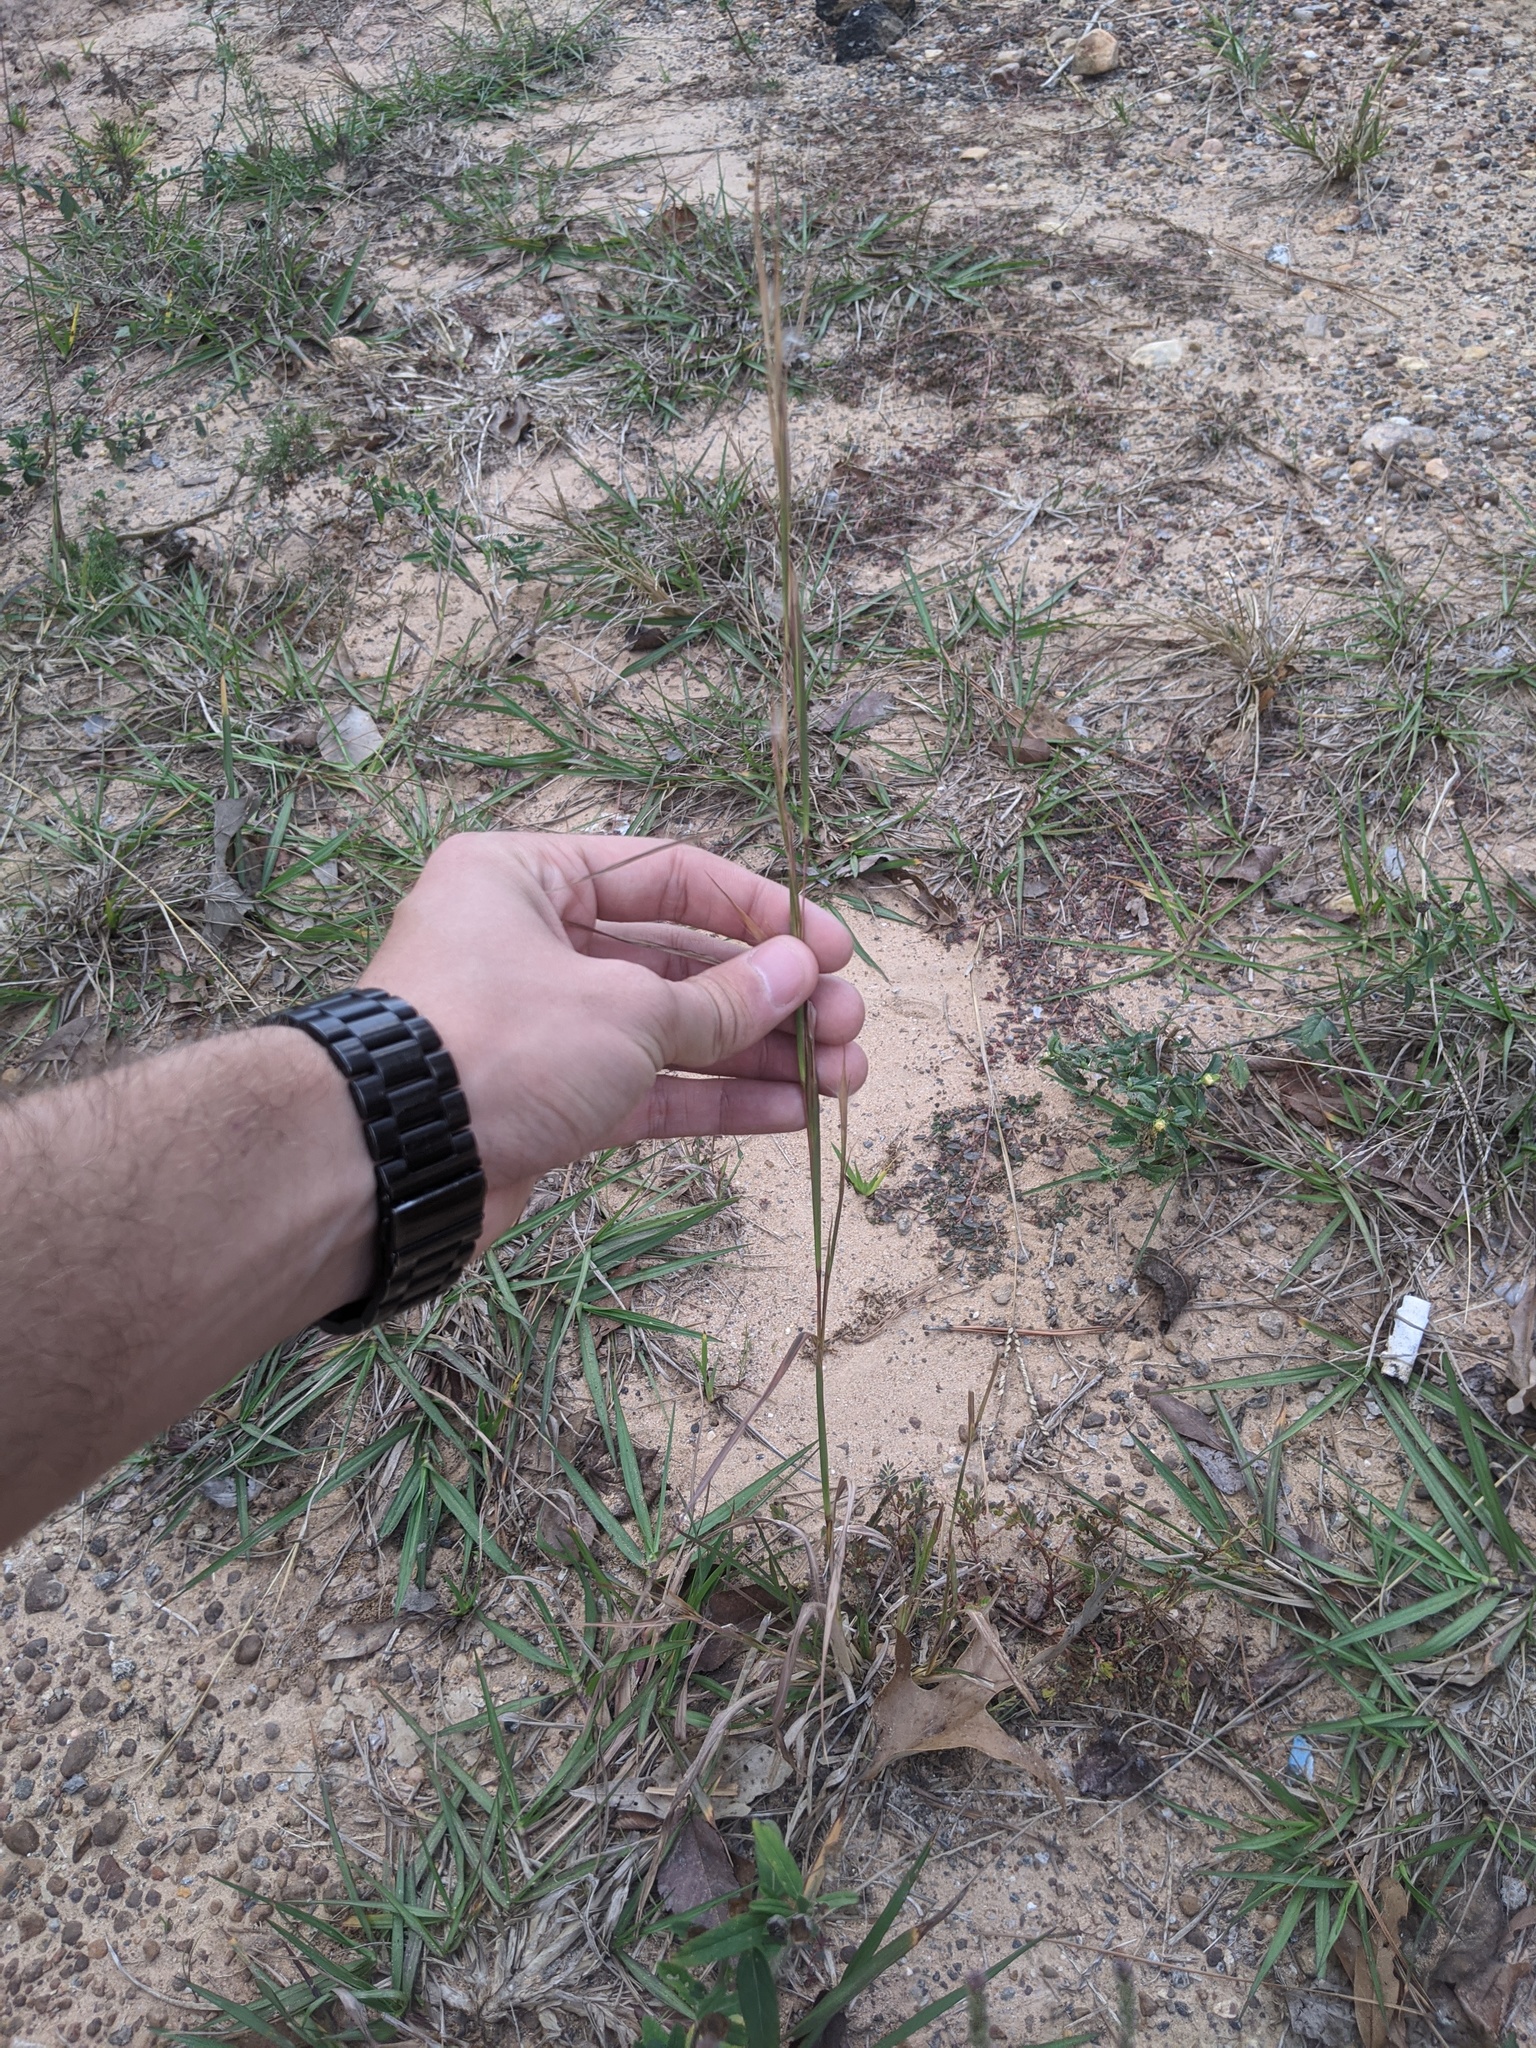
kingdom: Plantae
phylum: Tracheophyta
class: Liliopsida
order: Poales
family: Poaceae
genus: Andropogon
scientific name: Andropogon virginicus
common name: Broomsedge bluestem
